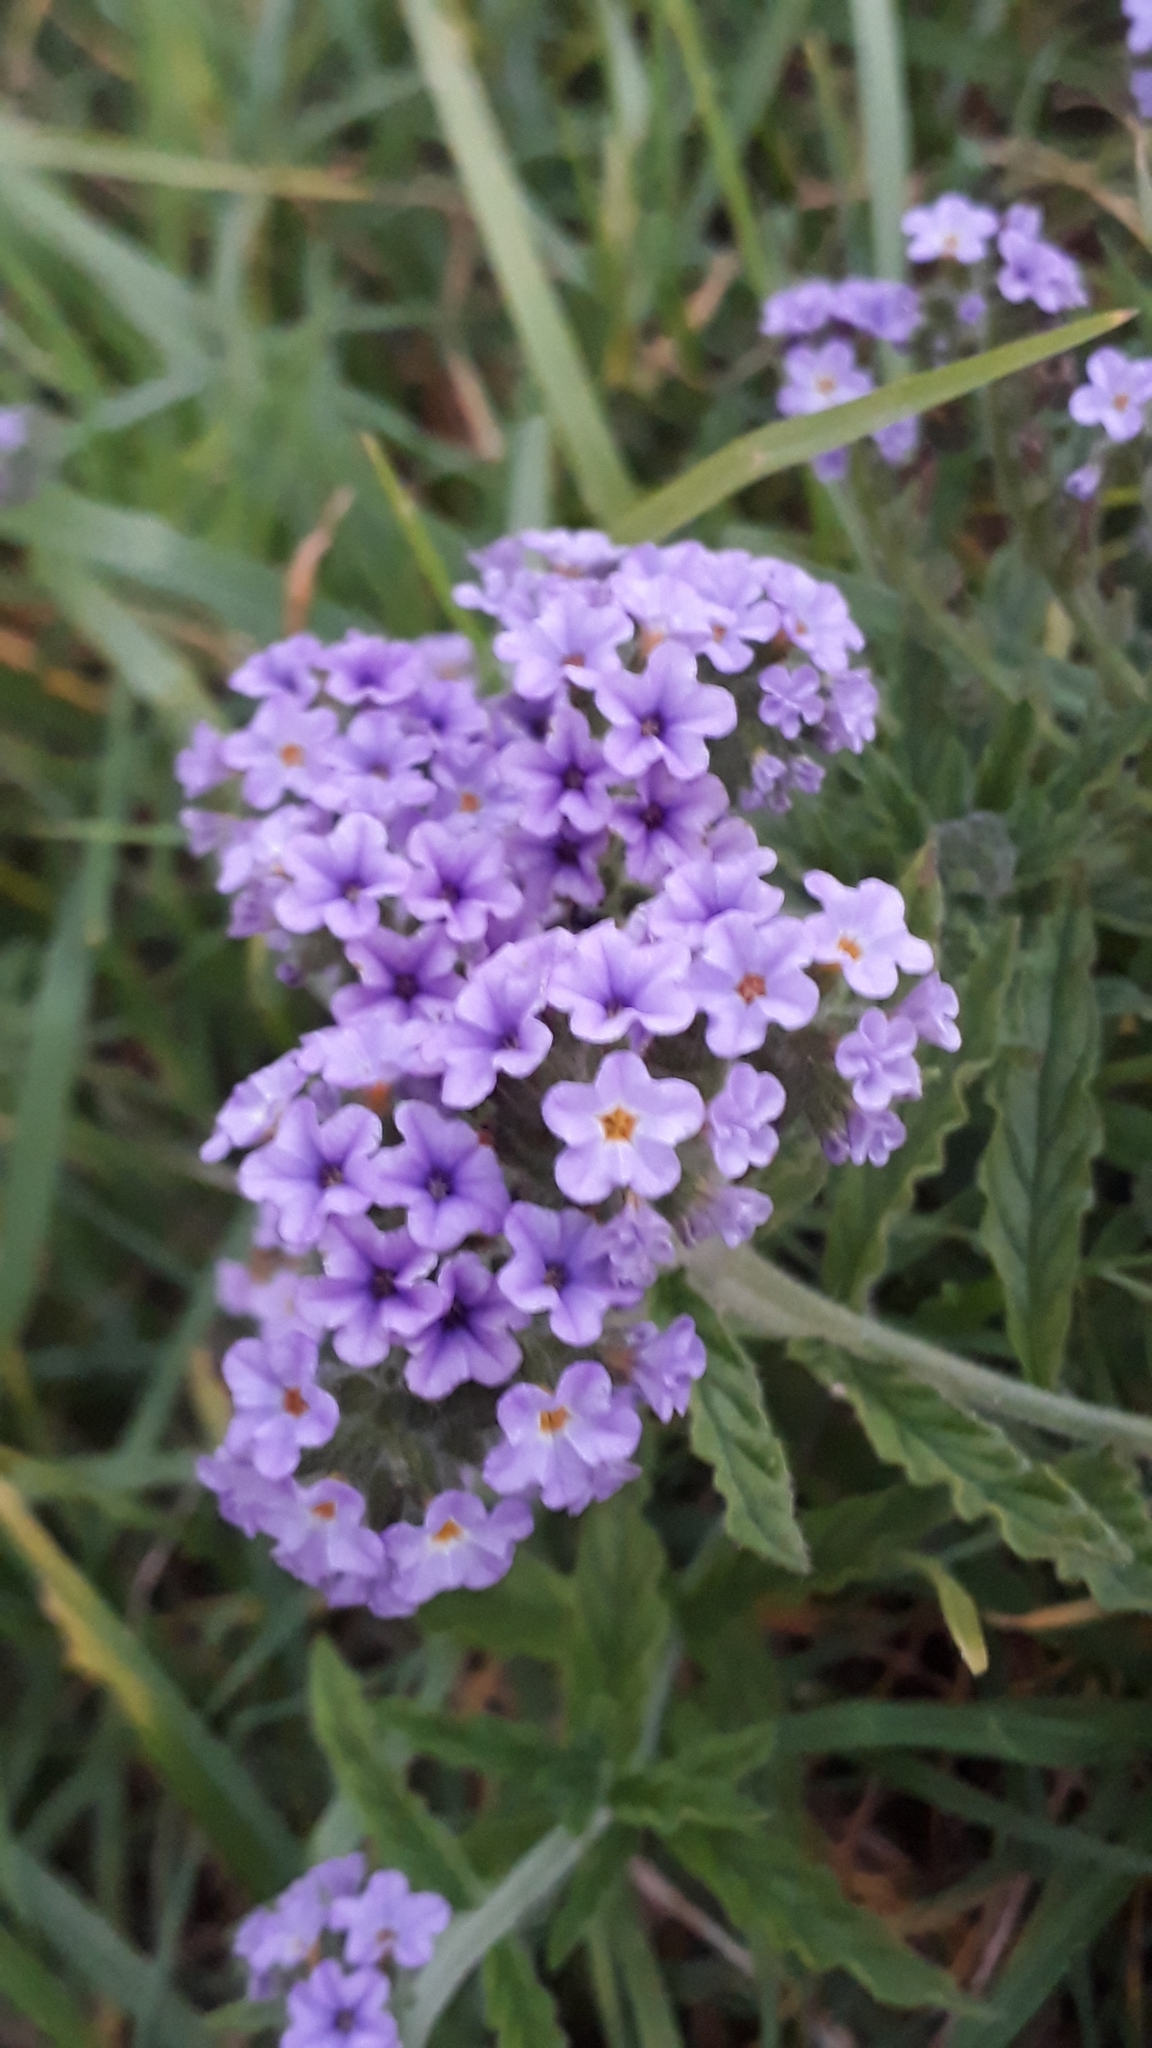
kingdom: Plantae
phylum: Tracheophyta
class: Magnoliopsida
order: Boraginales
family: Heliotropiaceae
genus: Heliotropium
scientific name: Heliotropium amplexicaule
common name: Clasping heliotrope
